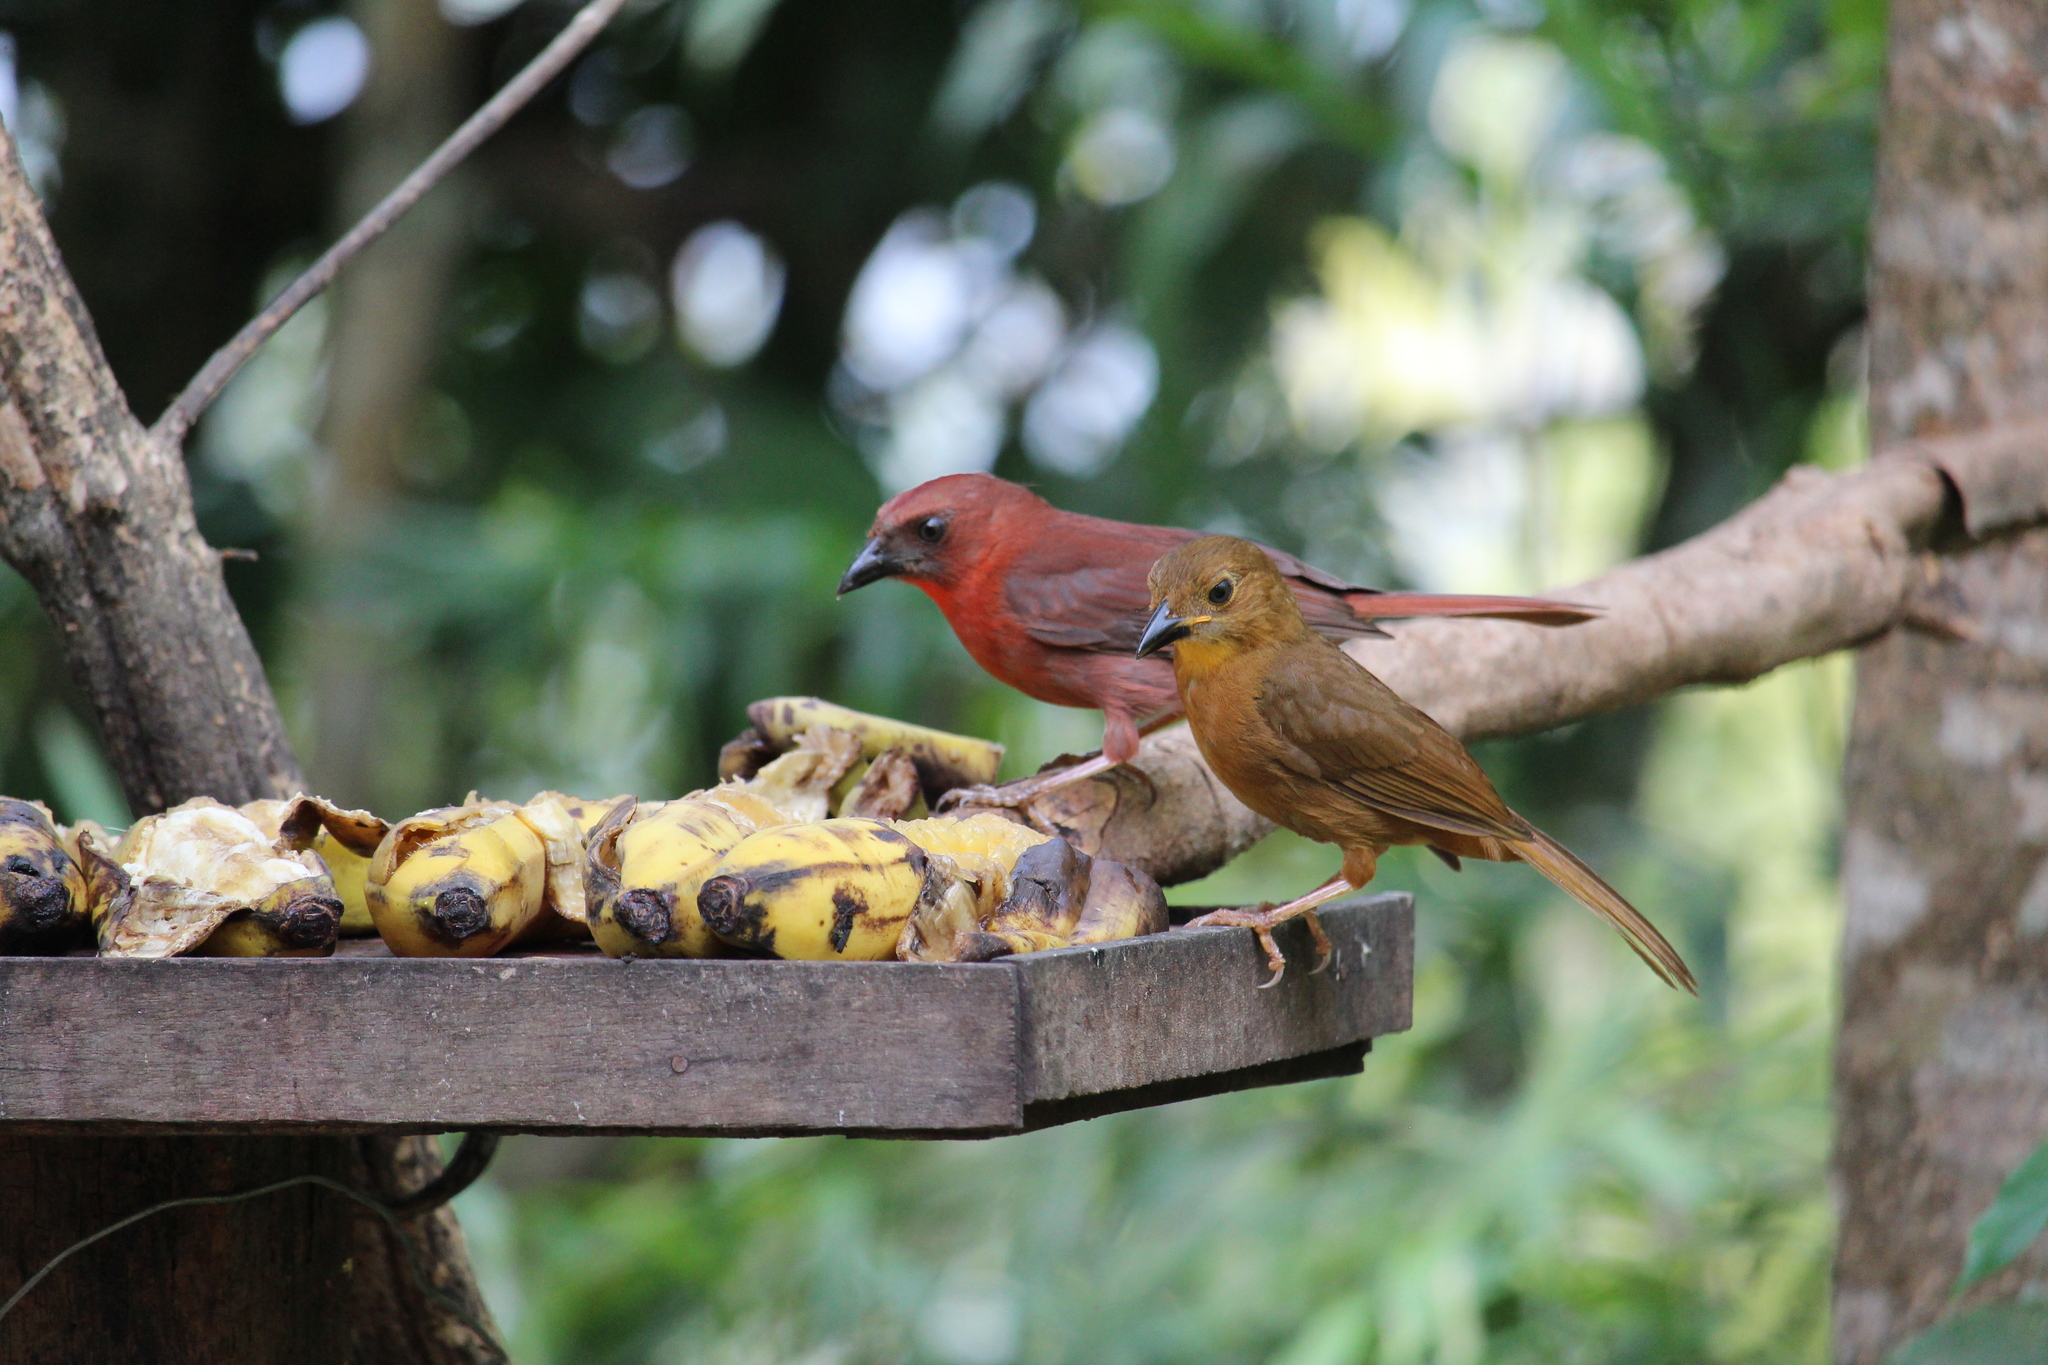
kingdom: Animalia
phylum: Chordata
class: Aves
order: Passeriformes
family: Cardinalidae
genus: Habia
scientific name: Habia fuscicauda
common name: Red-throated ant-tanager
